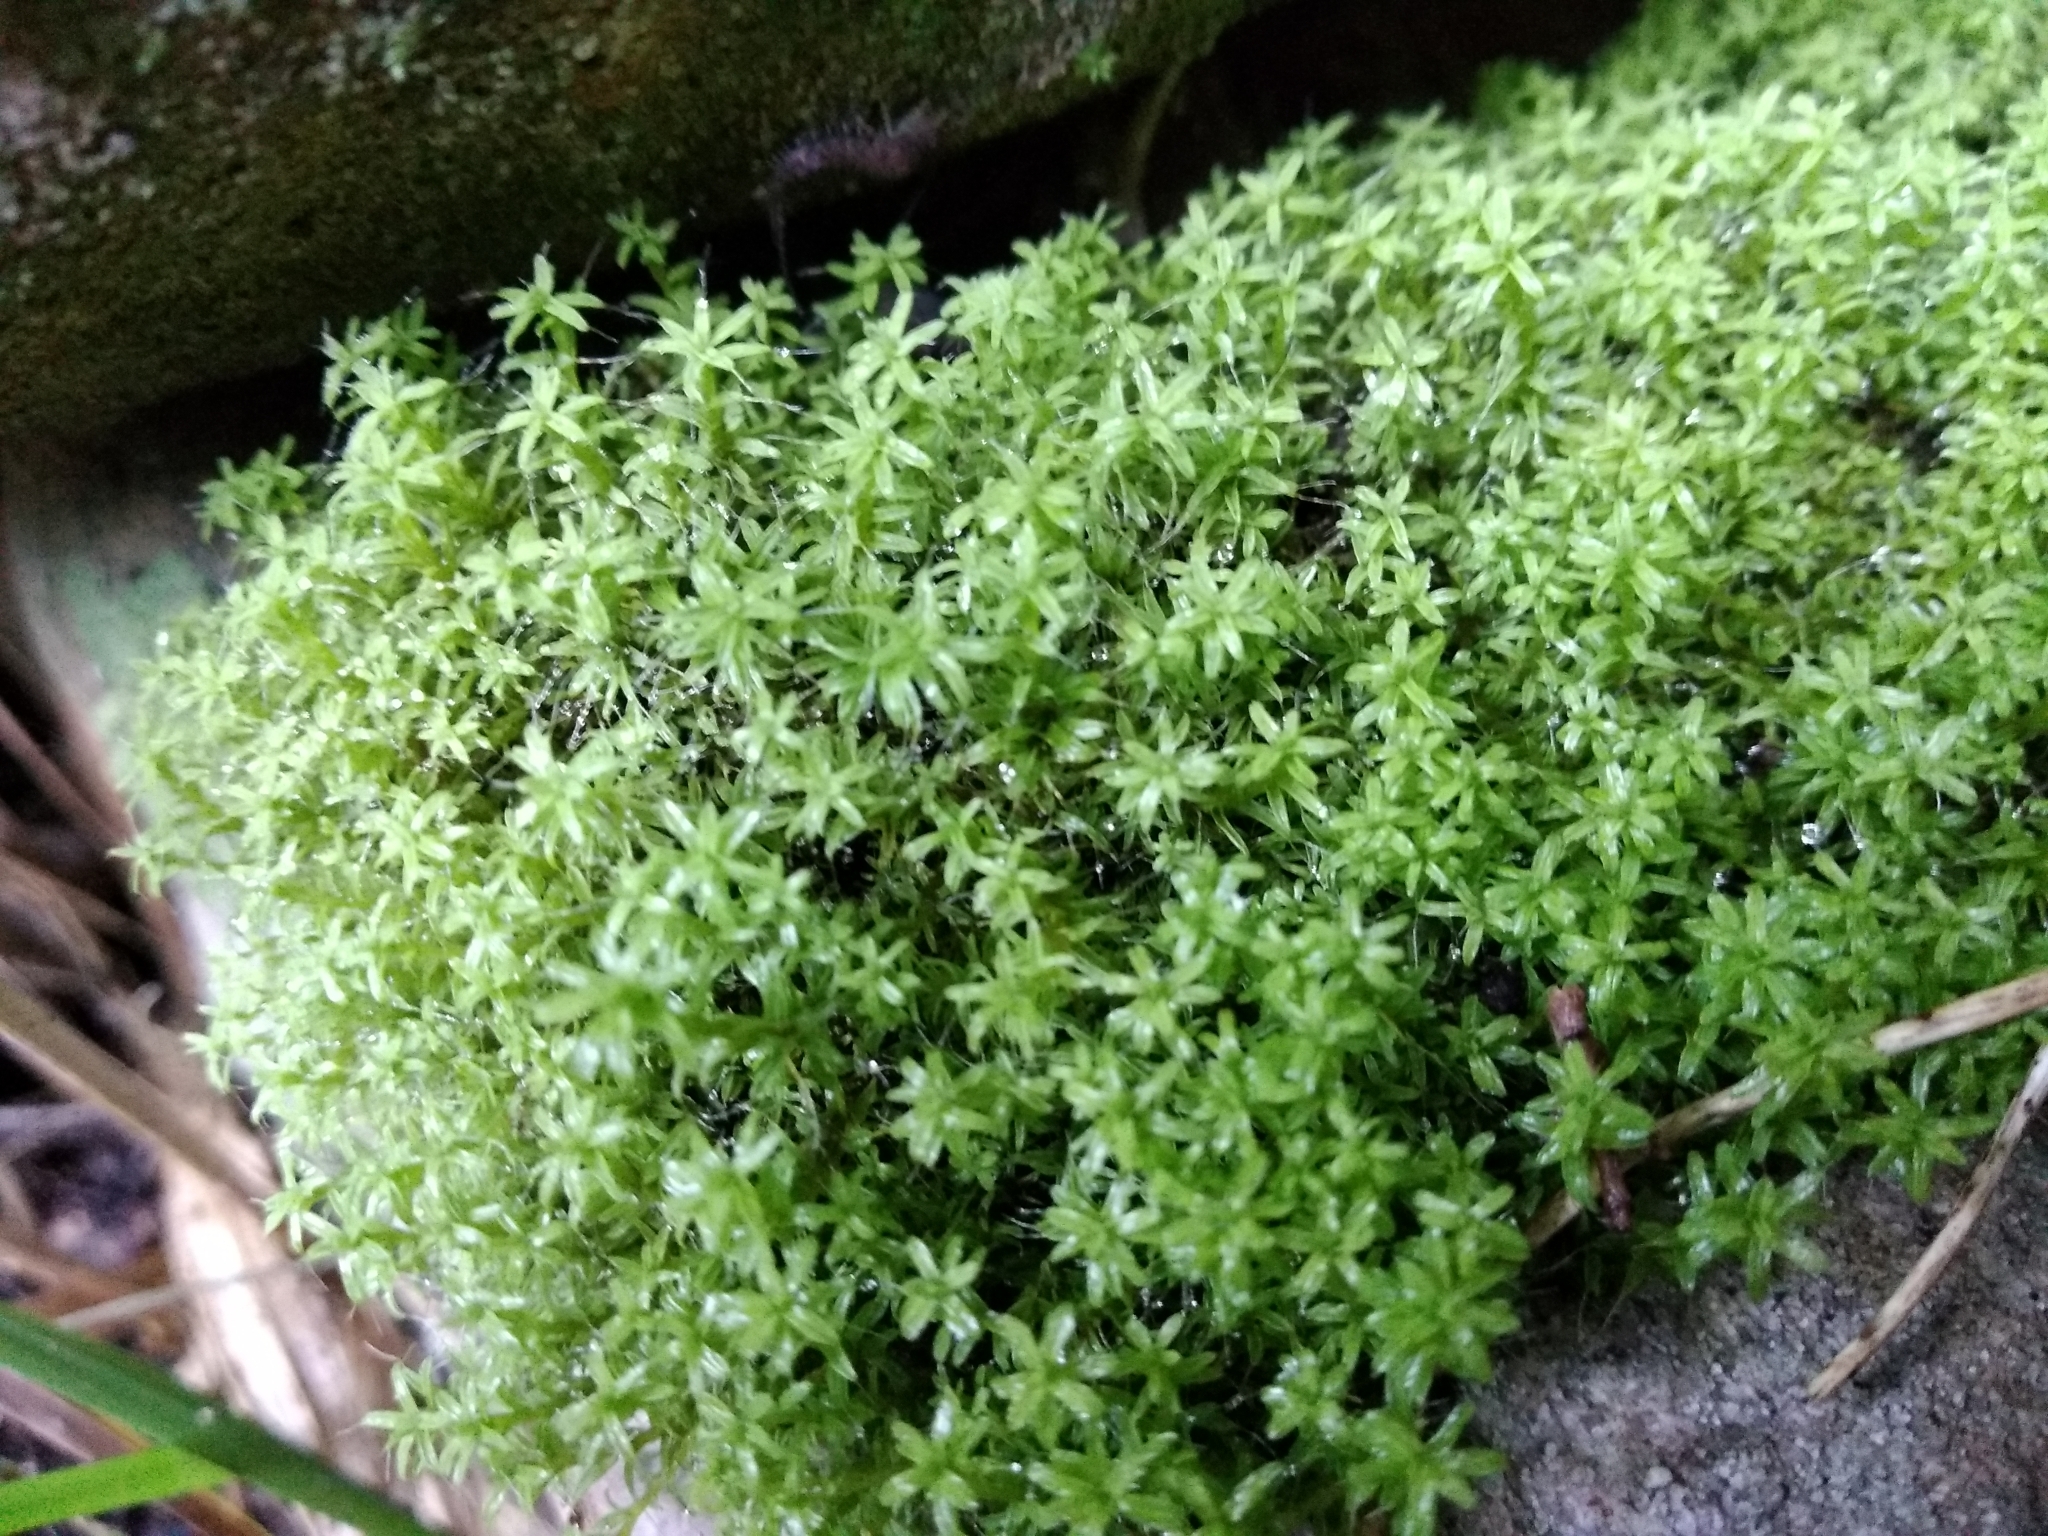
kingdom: Plantae
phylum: Bryophyta
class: Bryopsida
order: Pottiales
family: Pottiaceae
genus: Pseudocrossidium
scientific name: Pseudocrossidium crinitum
